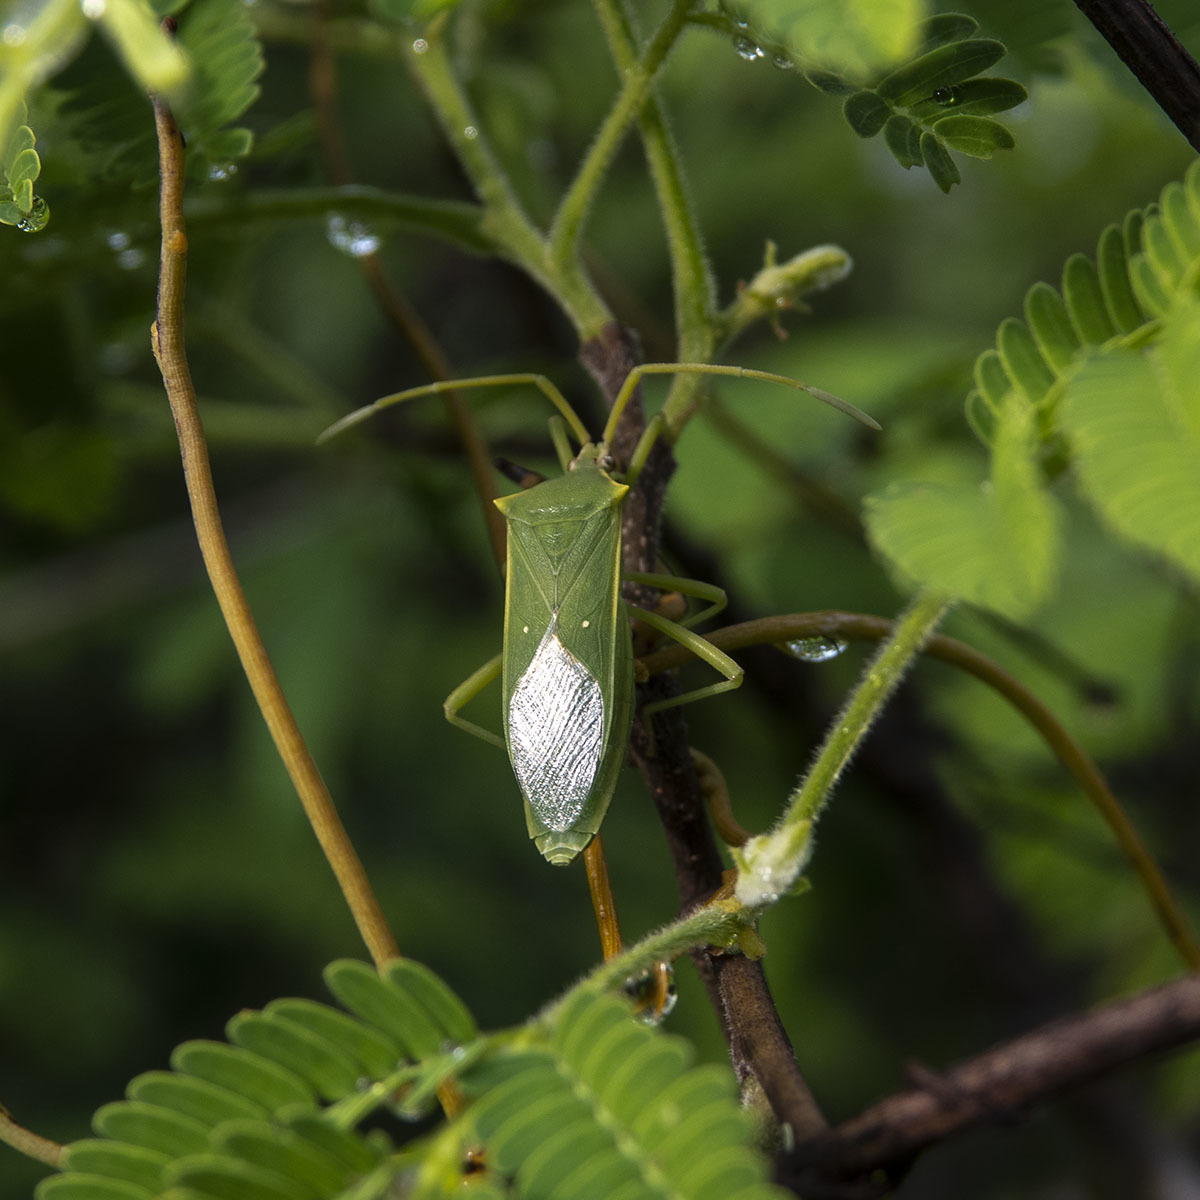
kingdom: Animalia
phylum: Arthropoda
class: Insecta
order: Hemiptera
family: Coreidae
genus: Homoeocerus
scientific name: Homoeocerus lacertosus
